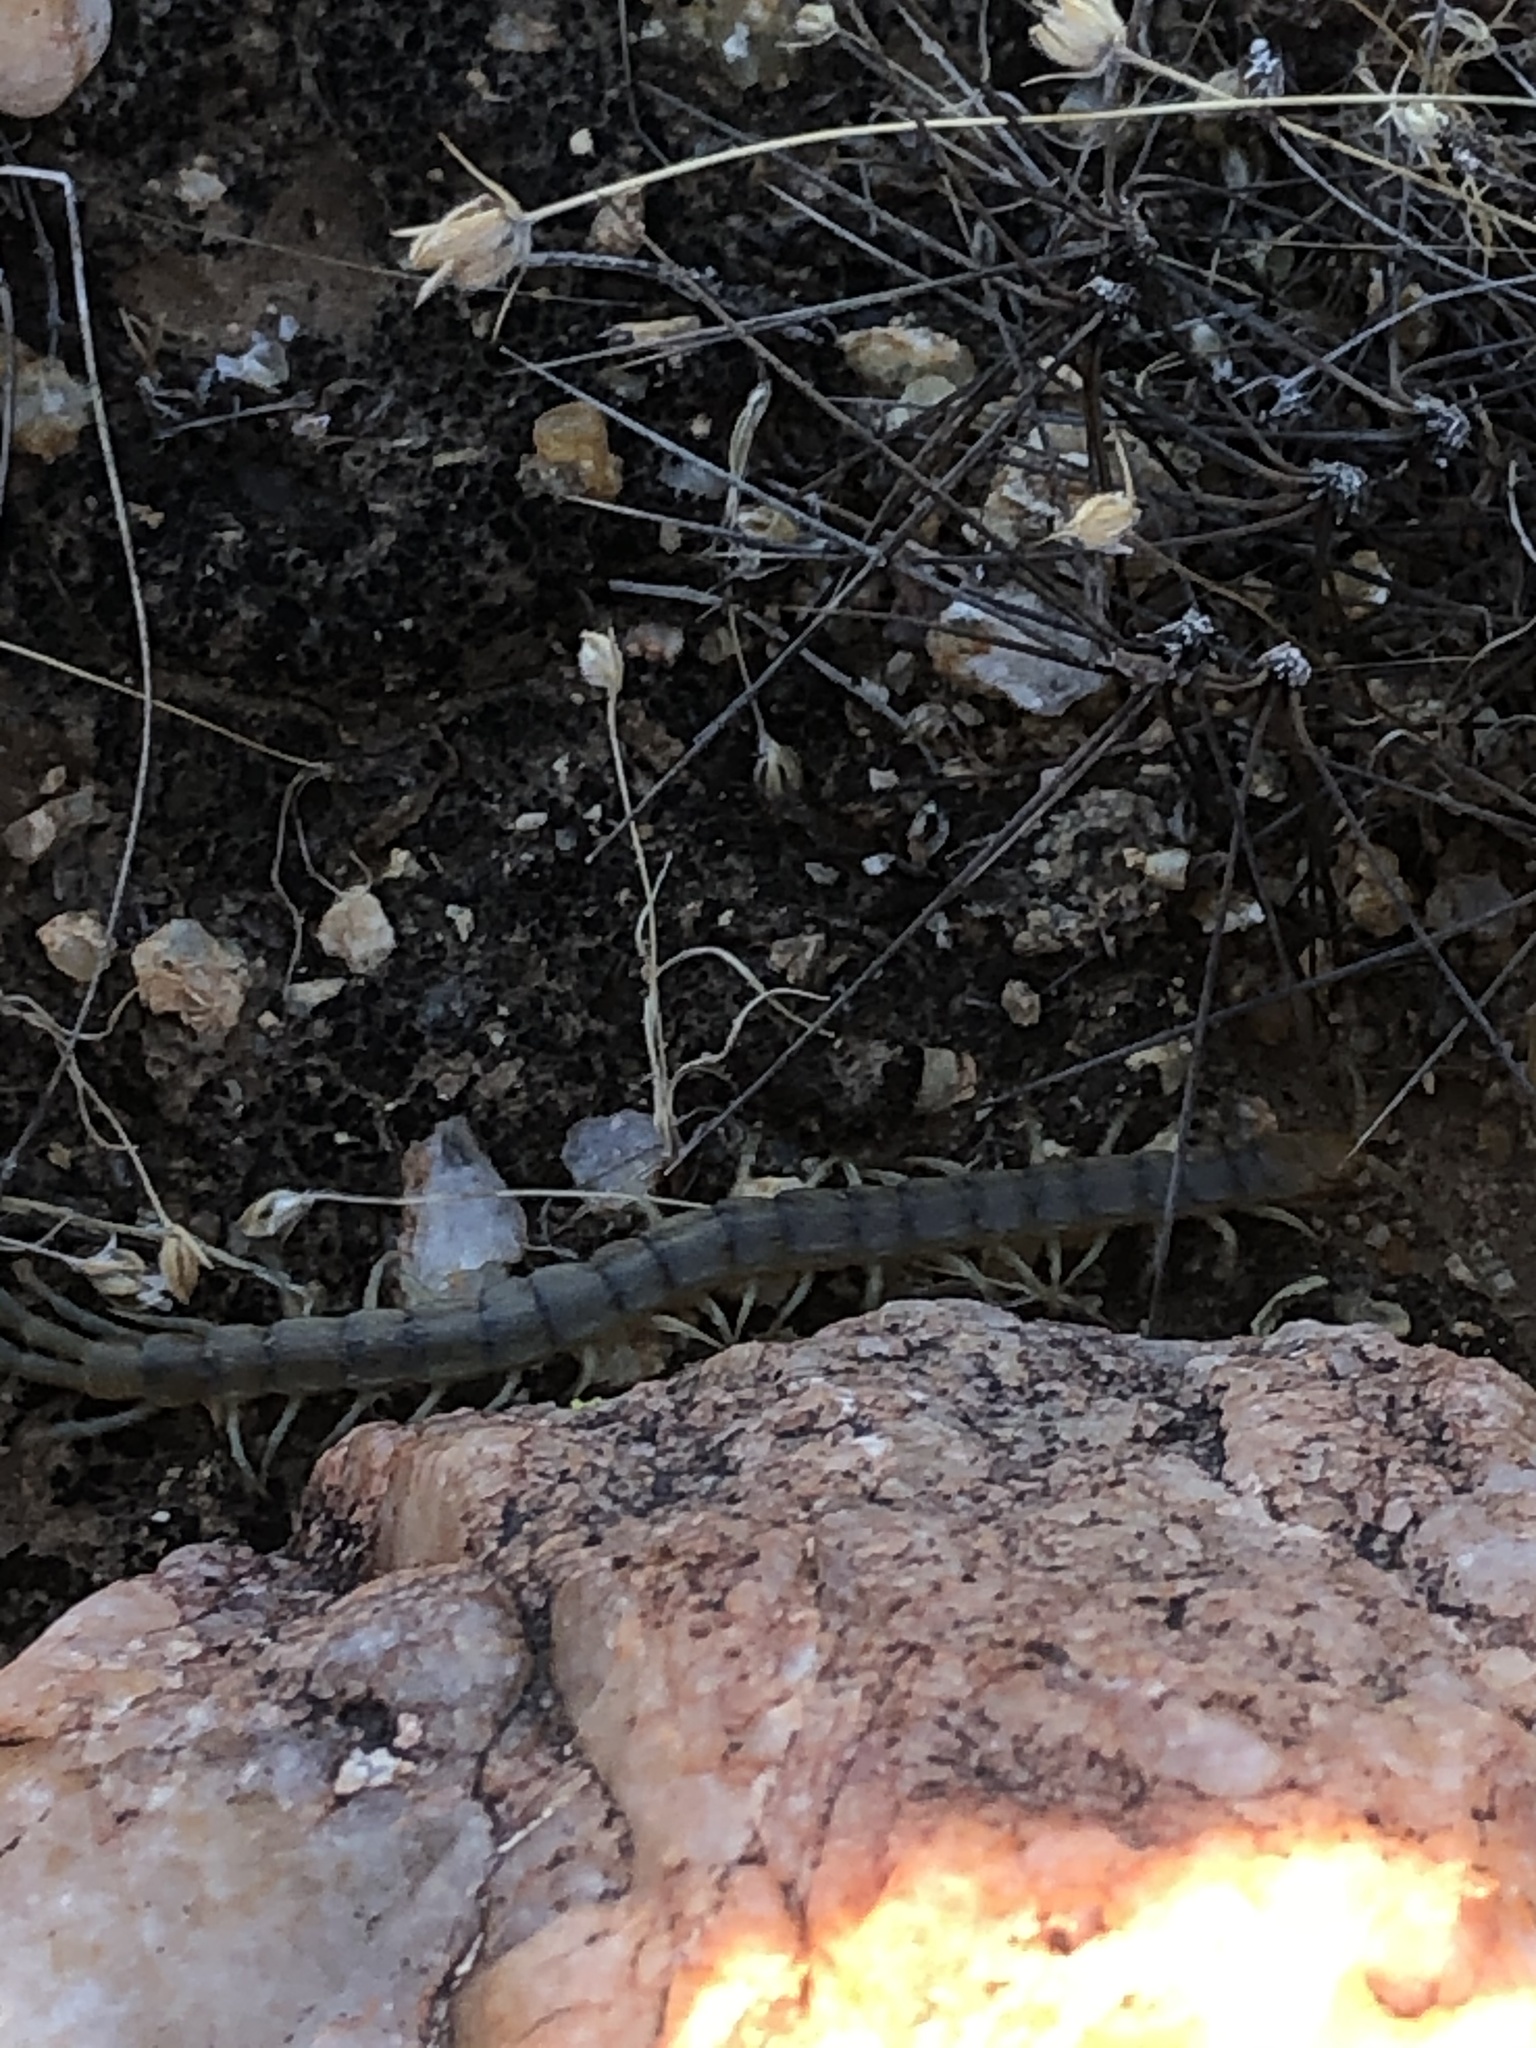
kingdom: Animalia
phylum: Arthropoda
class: Chilopoda
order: Scolopendromorpha
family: Scolopendridae
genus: Scolopendra
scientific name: Scolopendra polymorpha
